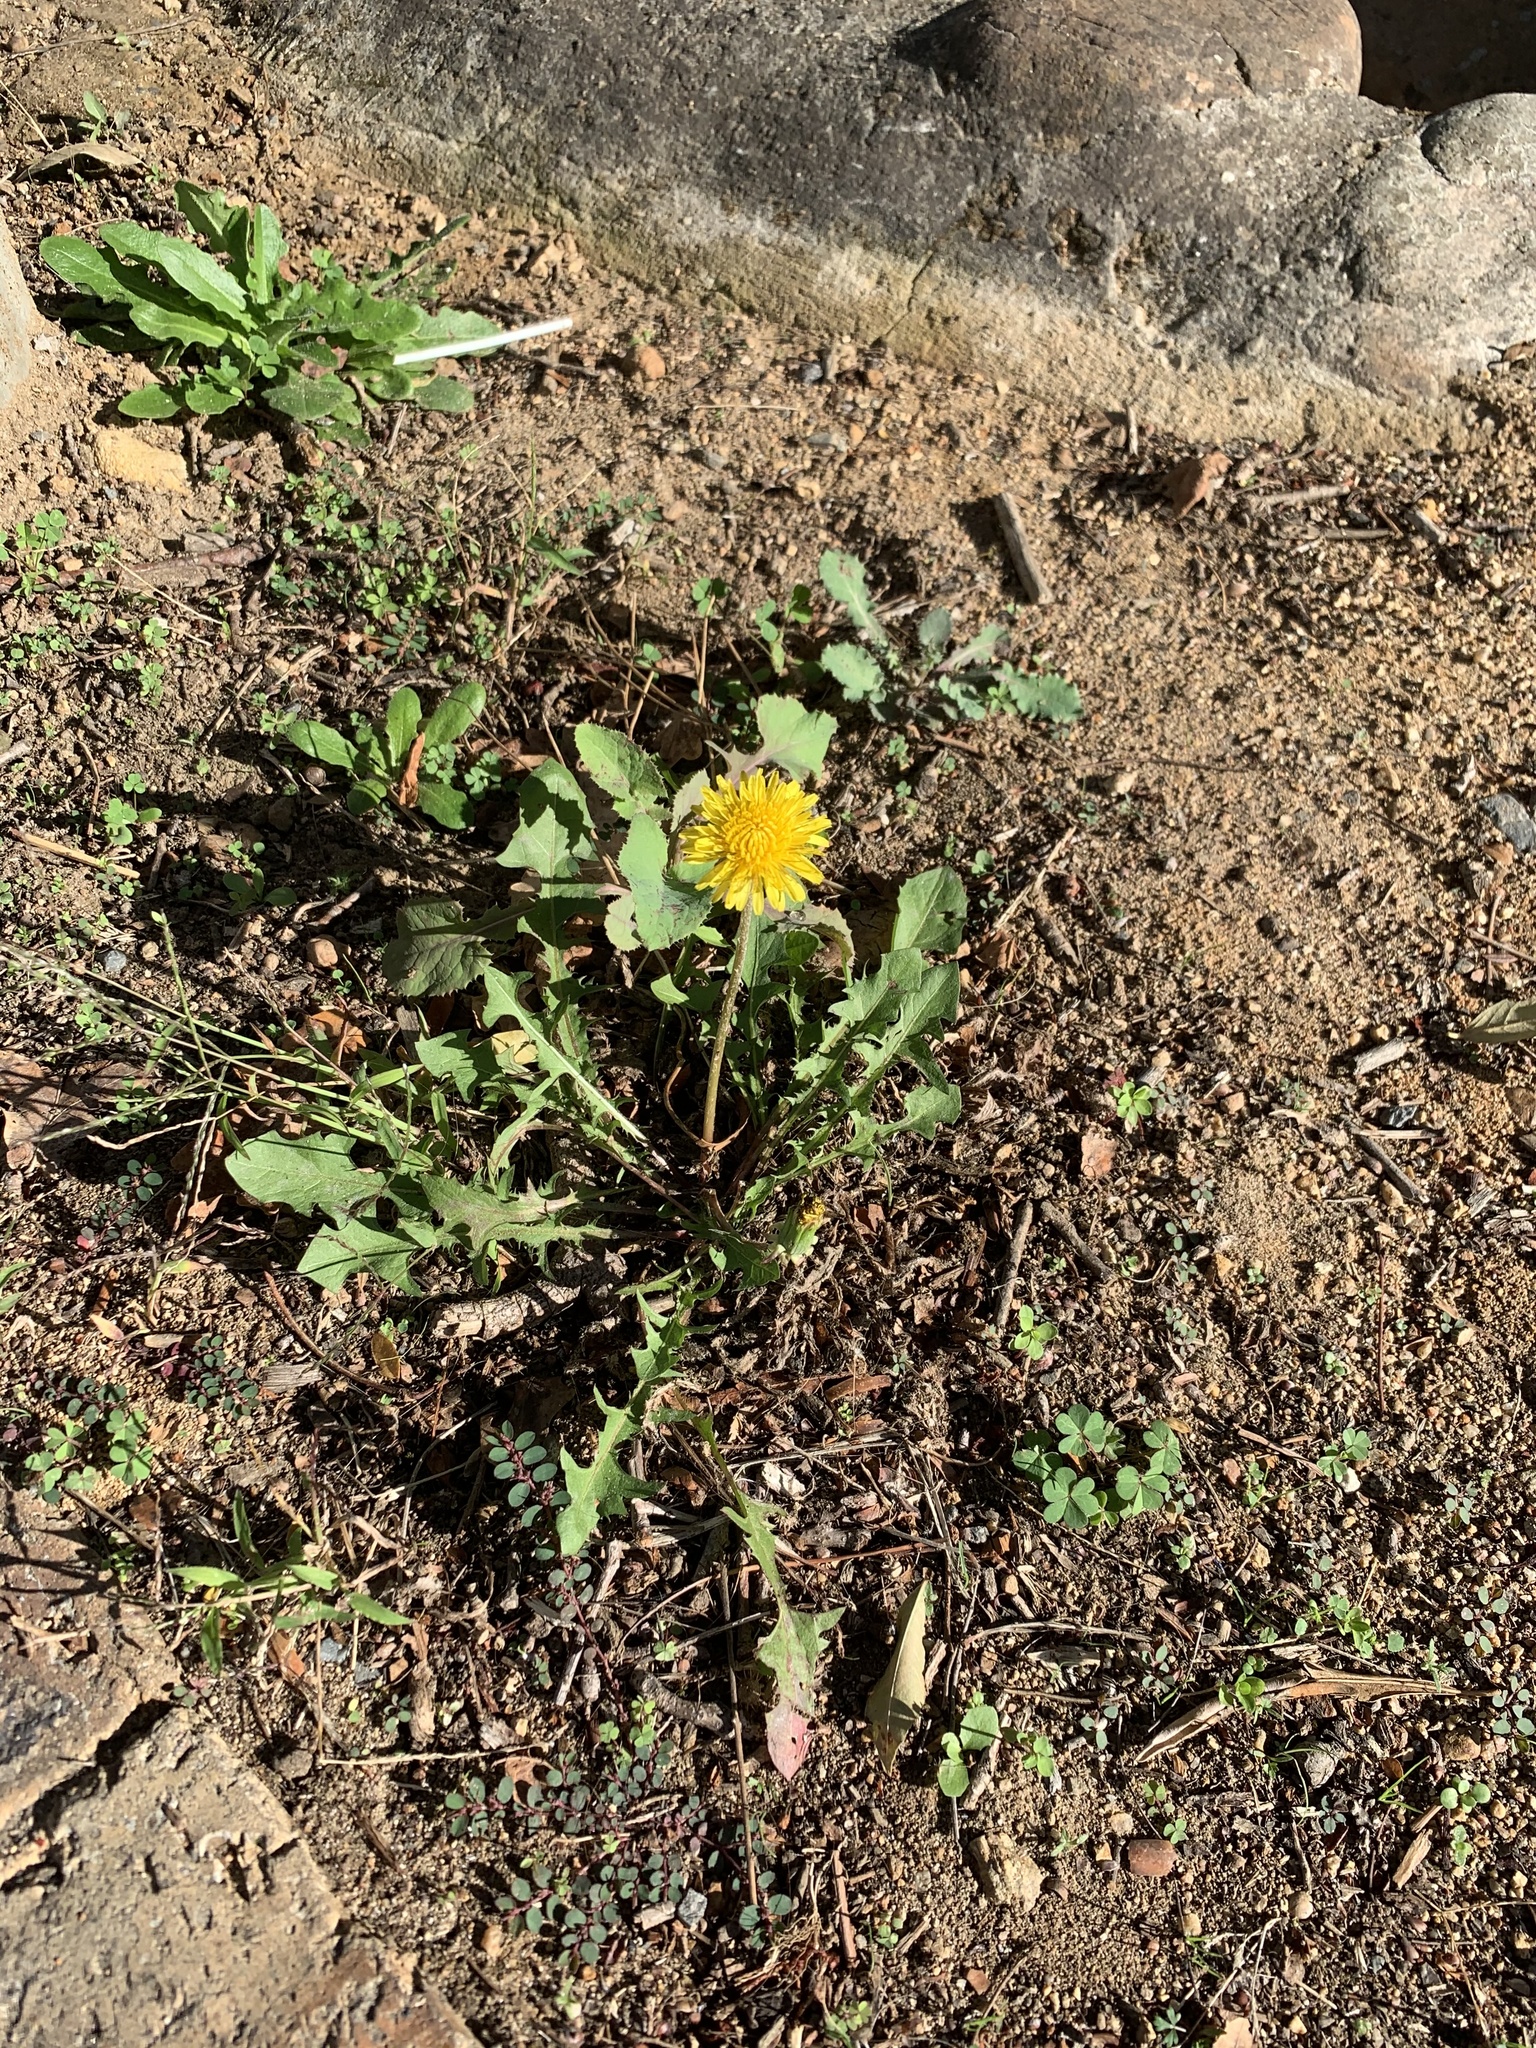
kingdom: Plantae
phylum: Tracheophyta
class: Magnoliopsida
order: Asterales
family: Asteraceae
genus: Taraxacum
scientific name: Taraxacum officinale
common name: Common dandelion
